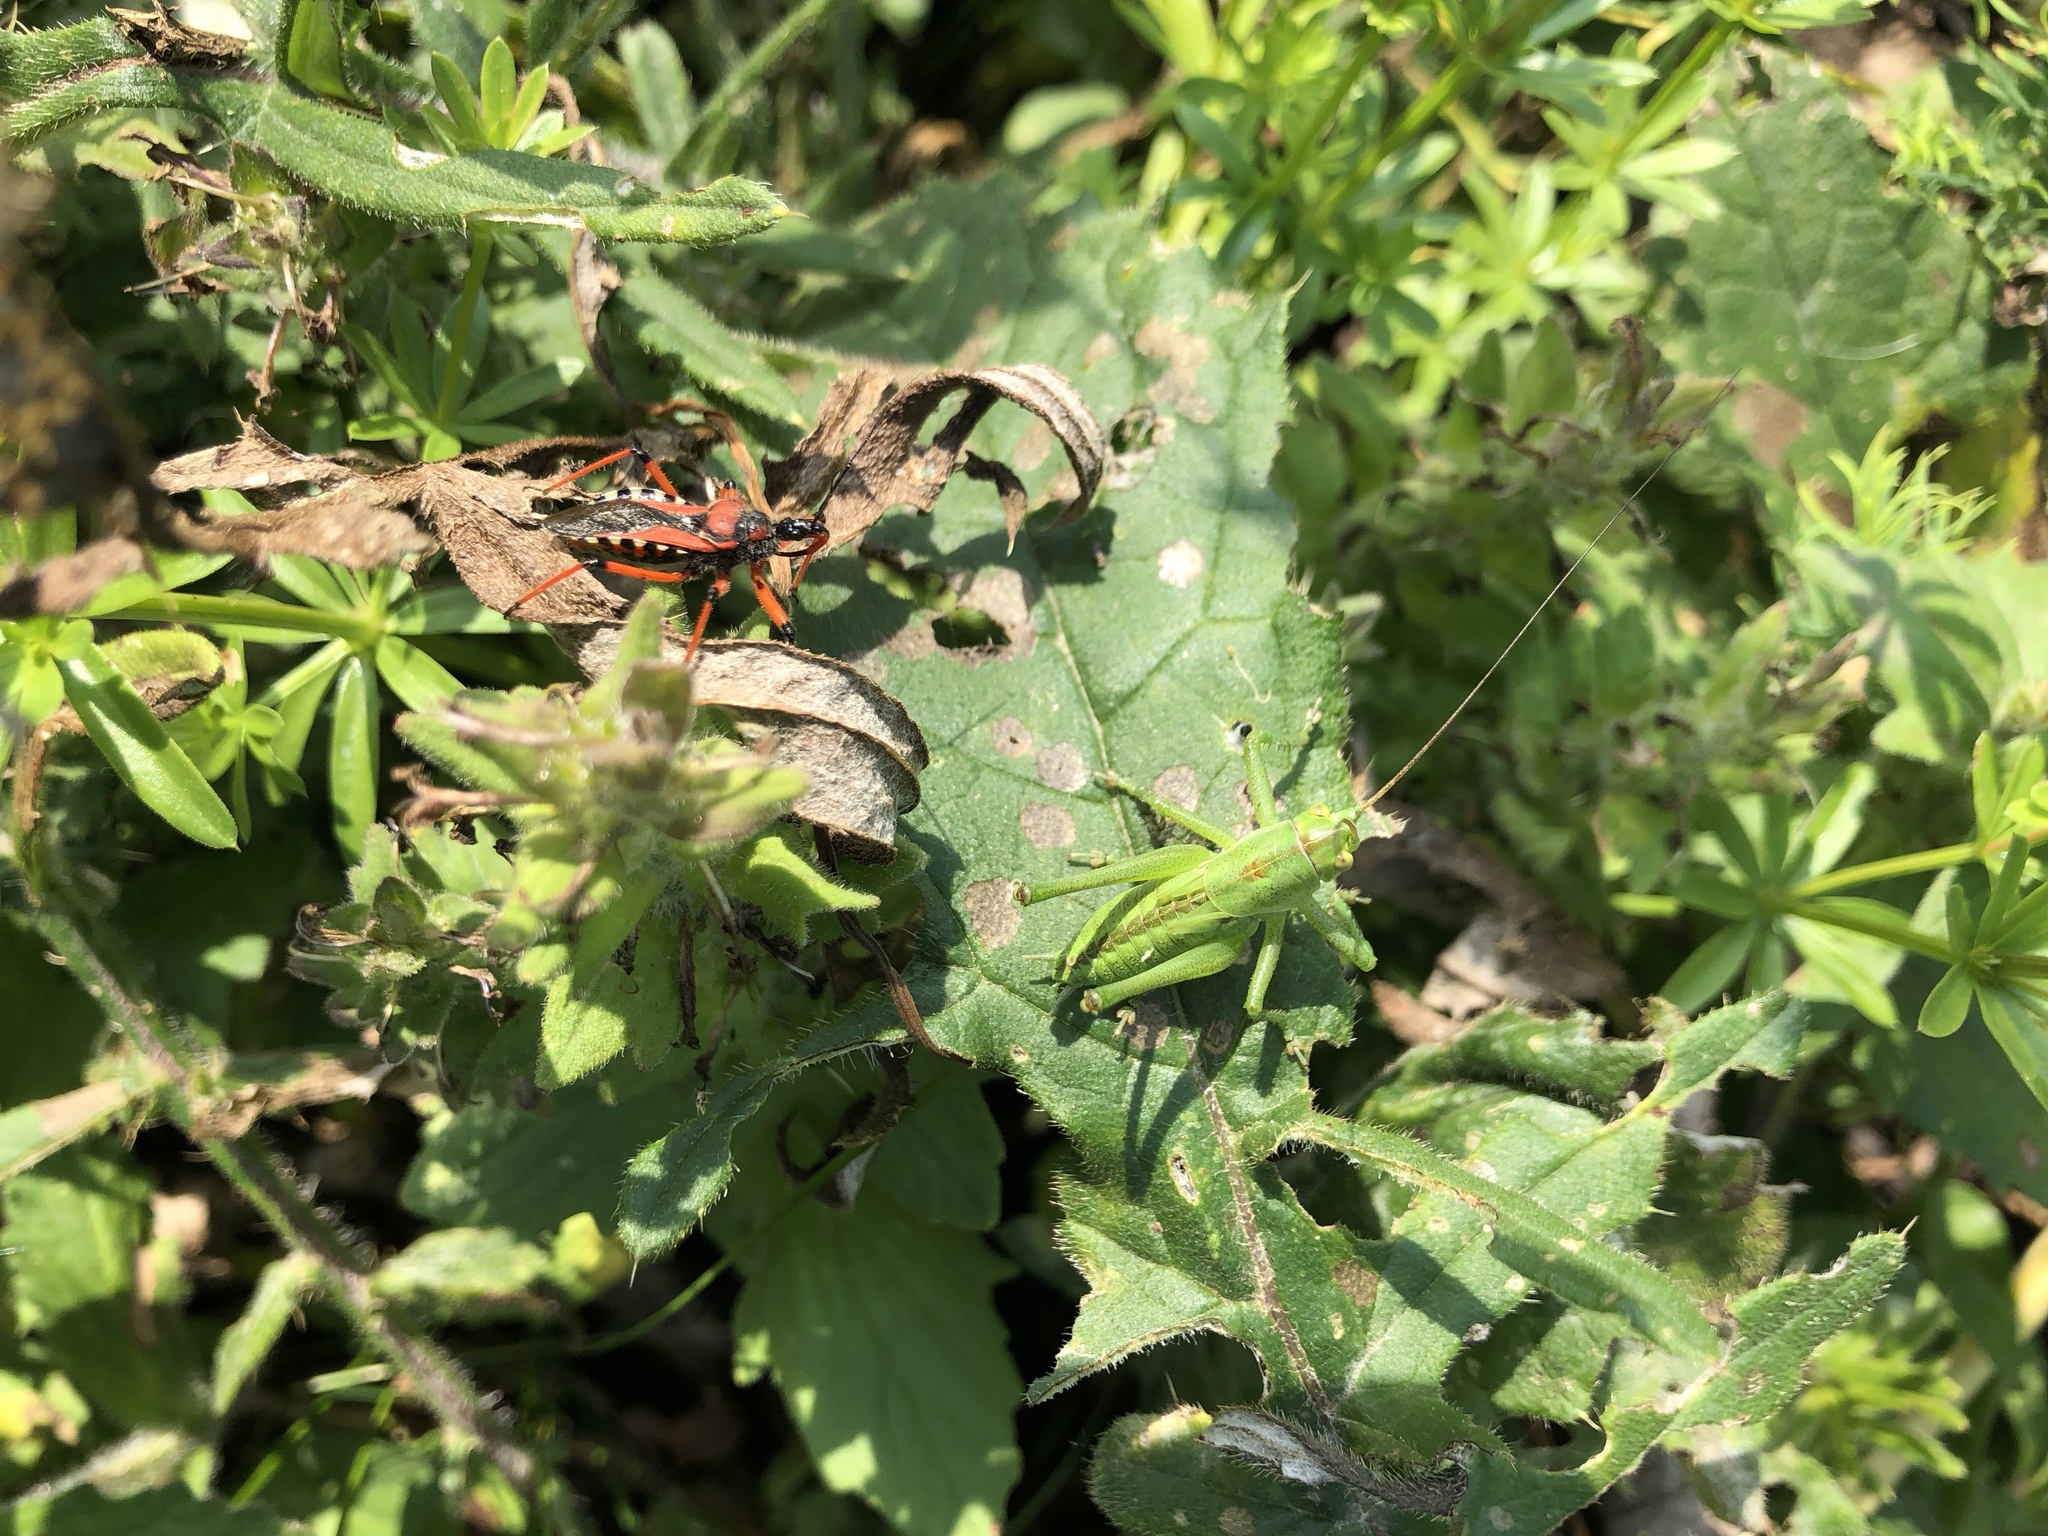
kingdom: Animalia
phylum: Arthropoda
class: Insecta
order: Hemiptera
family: Reduviidae
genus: Rhynocoris
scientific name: Rhynocoris iracundus
